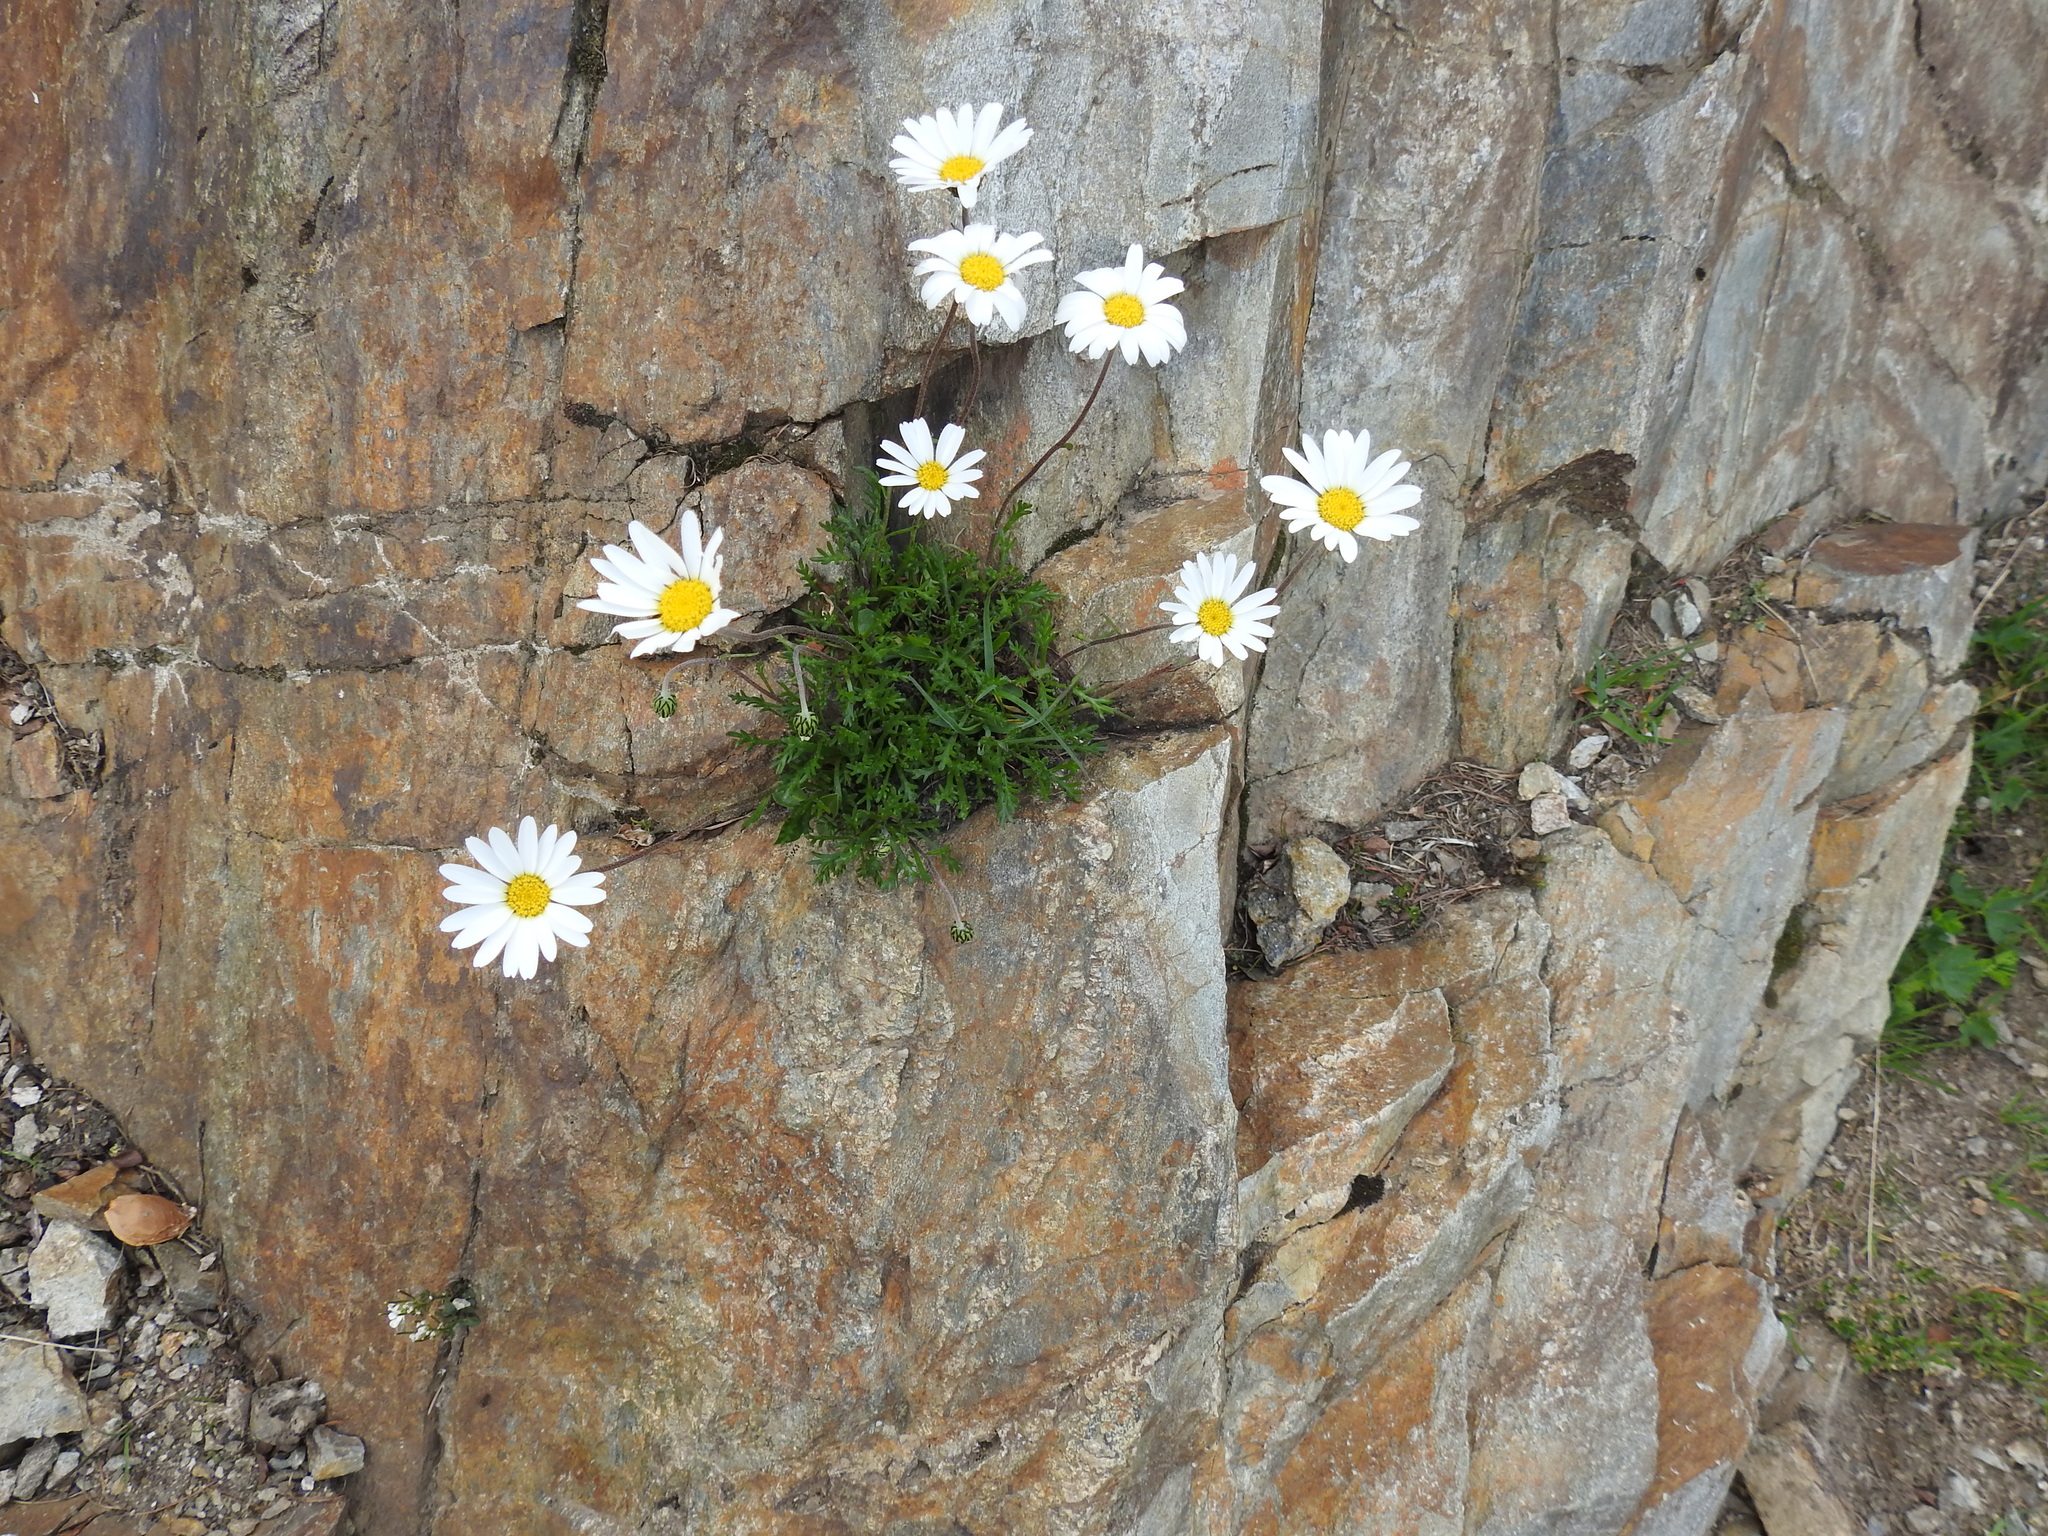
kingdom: Plantae
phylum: Tracheophyta
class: Magnoliopsida
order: Asterales
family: Asteraceae
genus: Leucanthemopsis
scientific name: Leucanthemopsis alpina
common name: Alpine moon daisy
